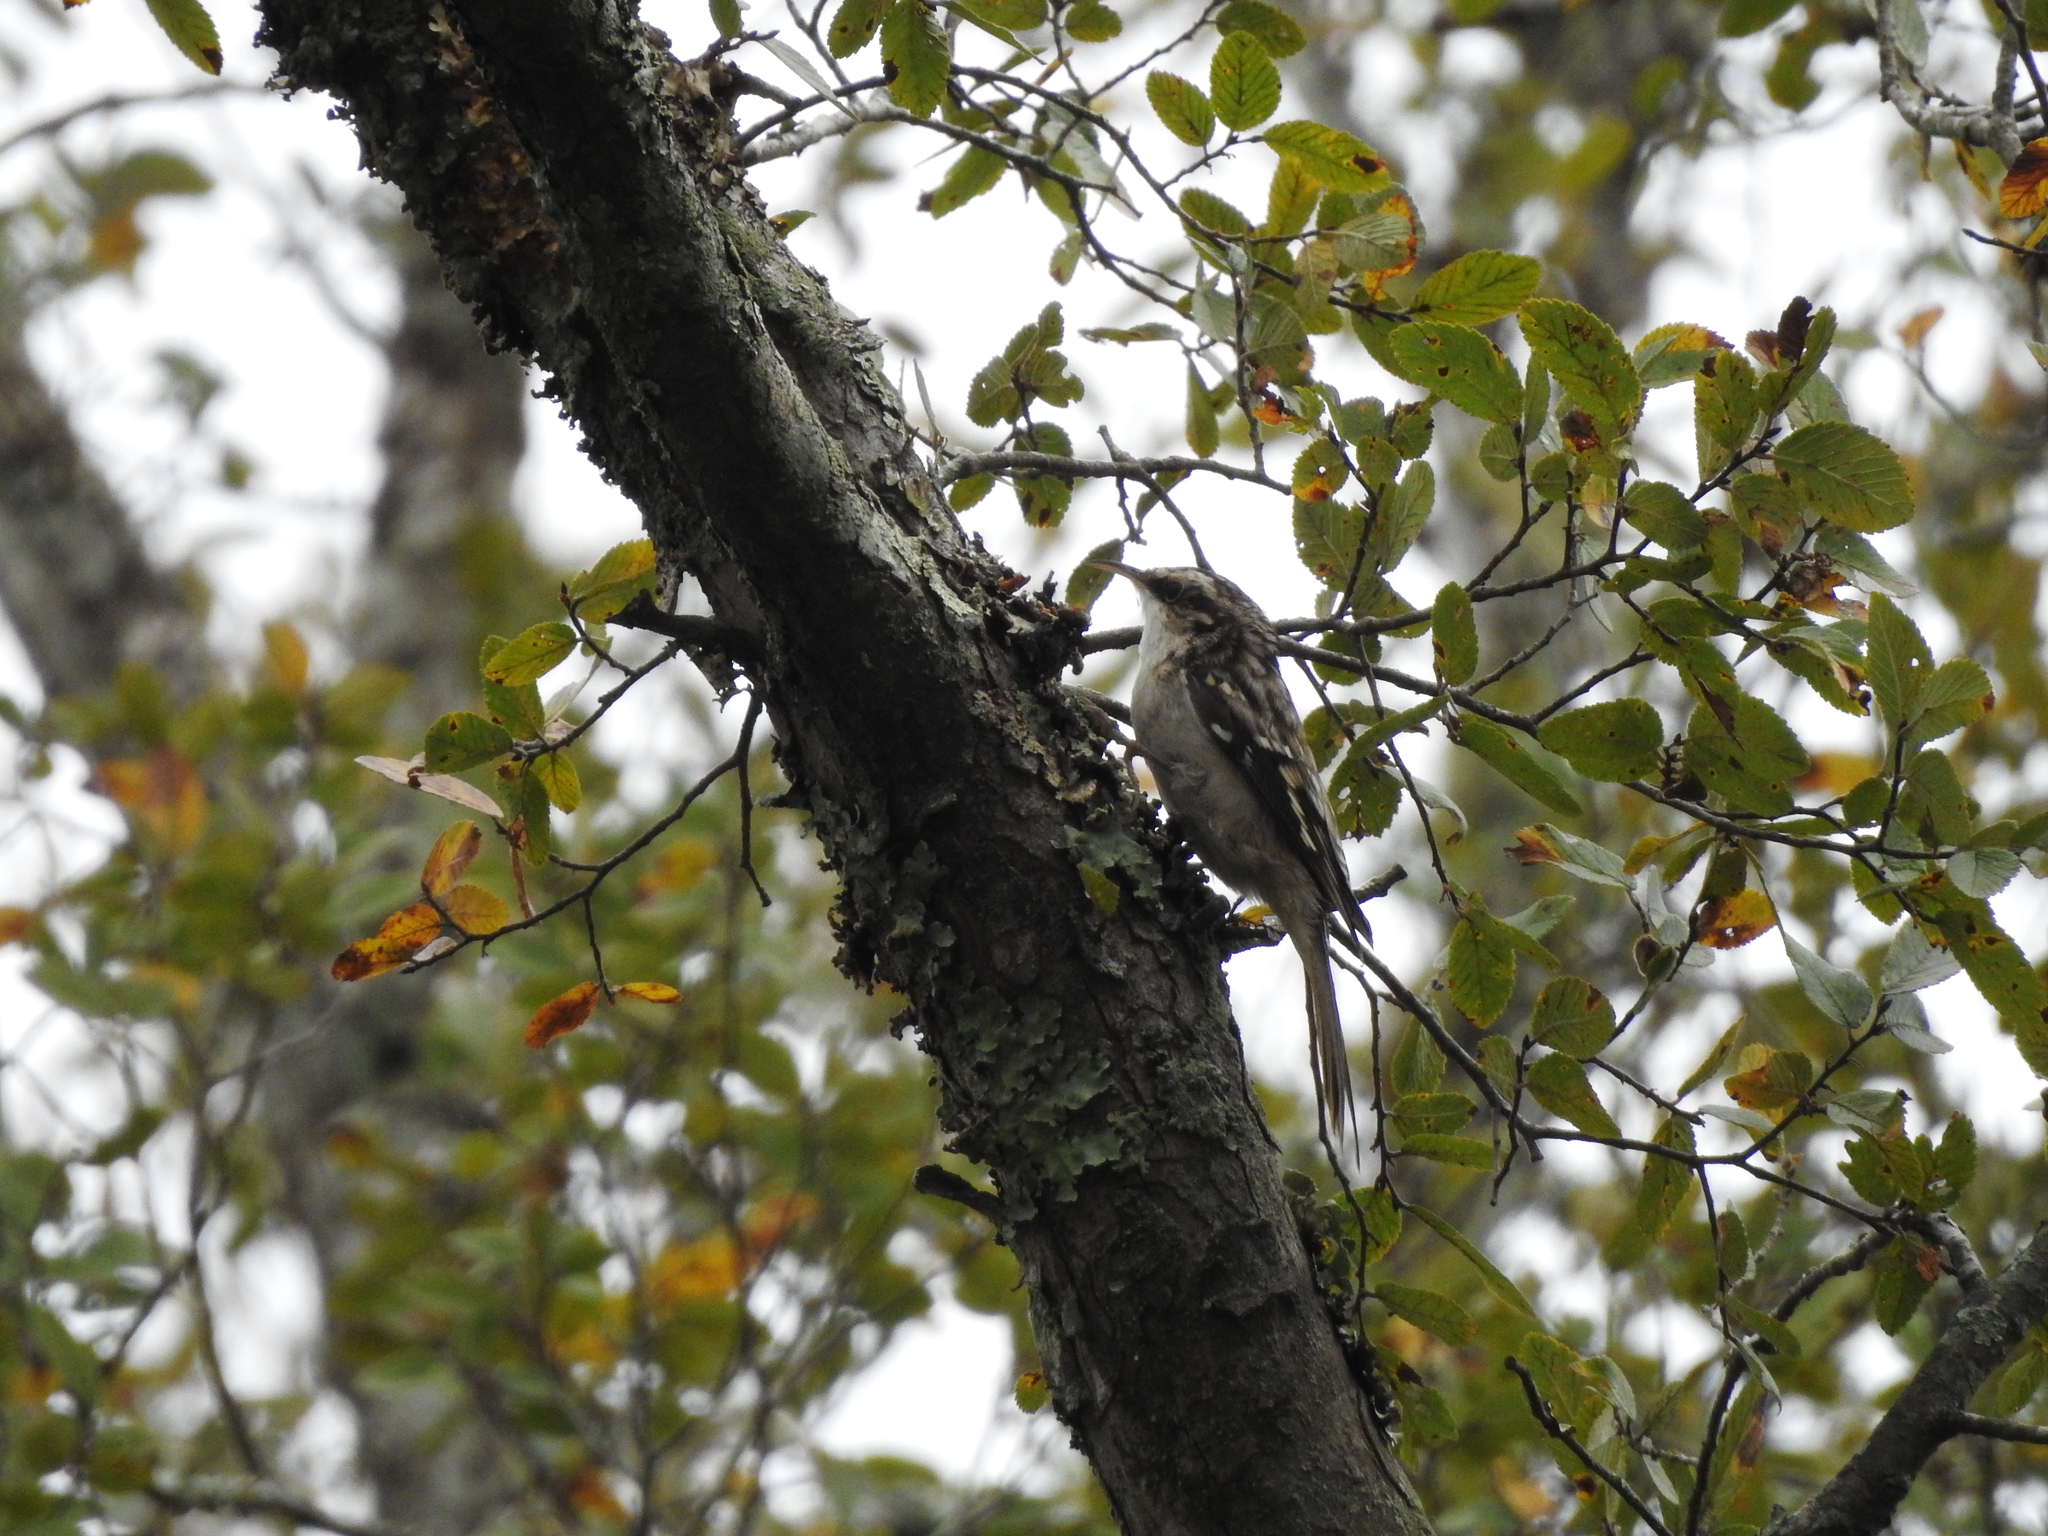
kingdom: Animalia
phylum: Chordata
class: Aves
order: Passeriformes
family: Certhiidae
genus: Certhia
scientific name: Certhia americana
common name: Brown creeper
